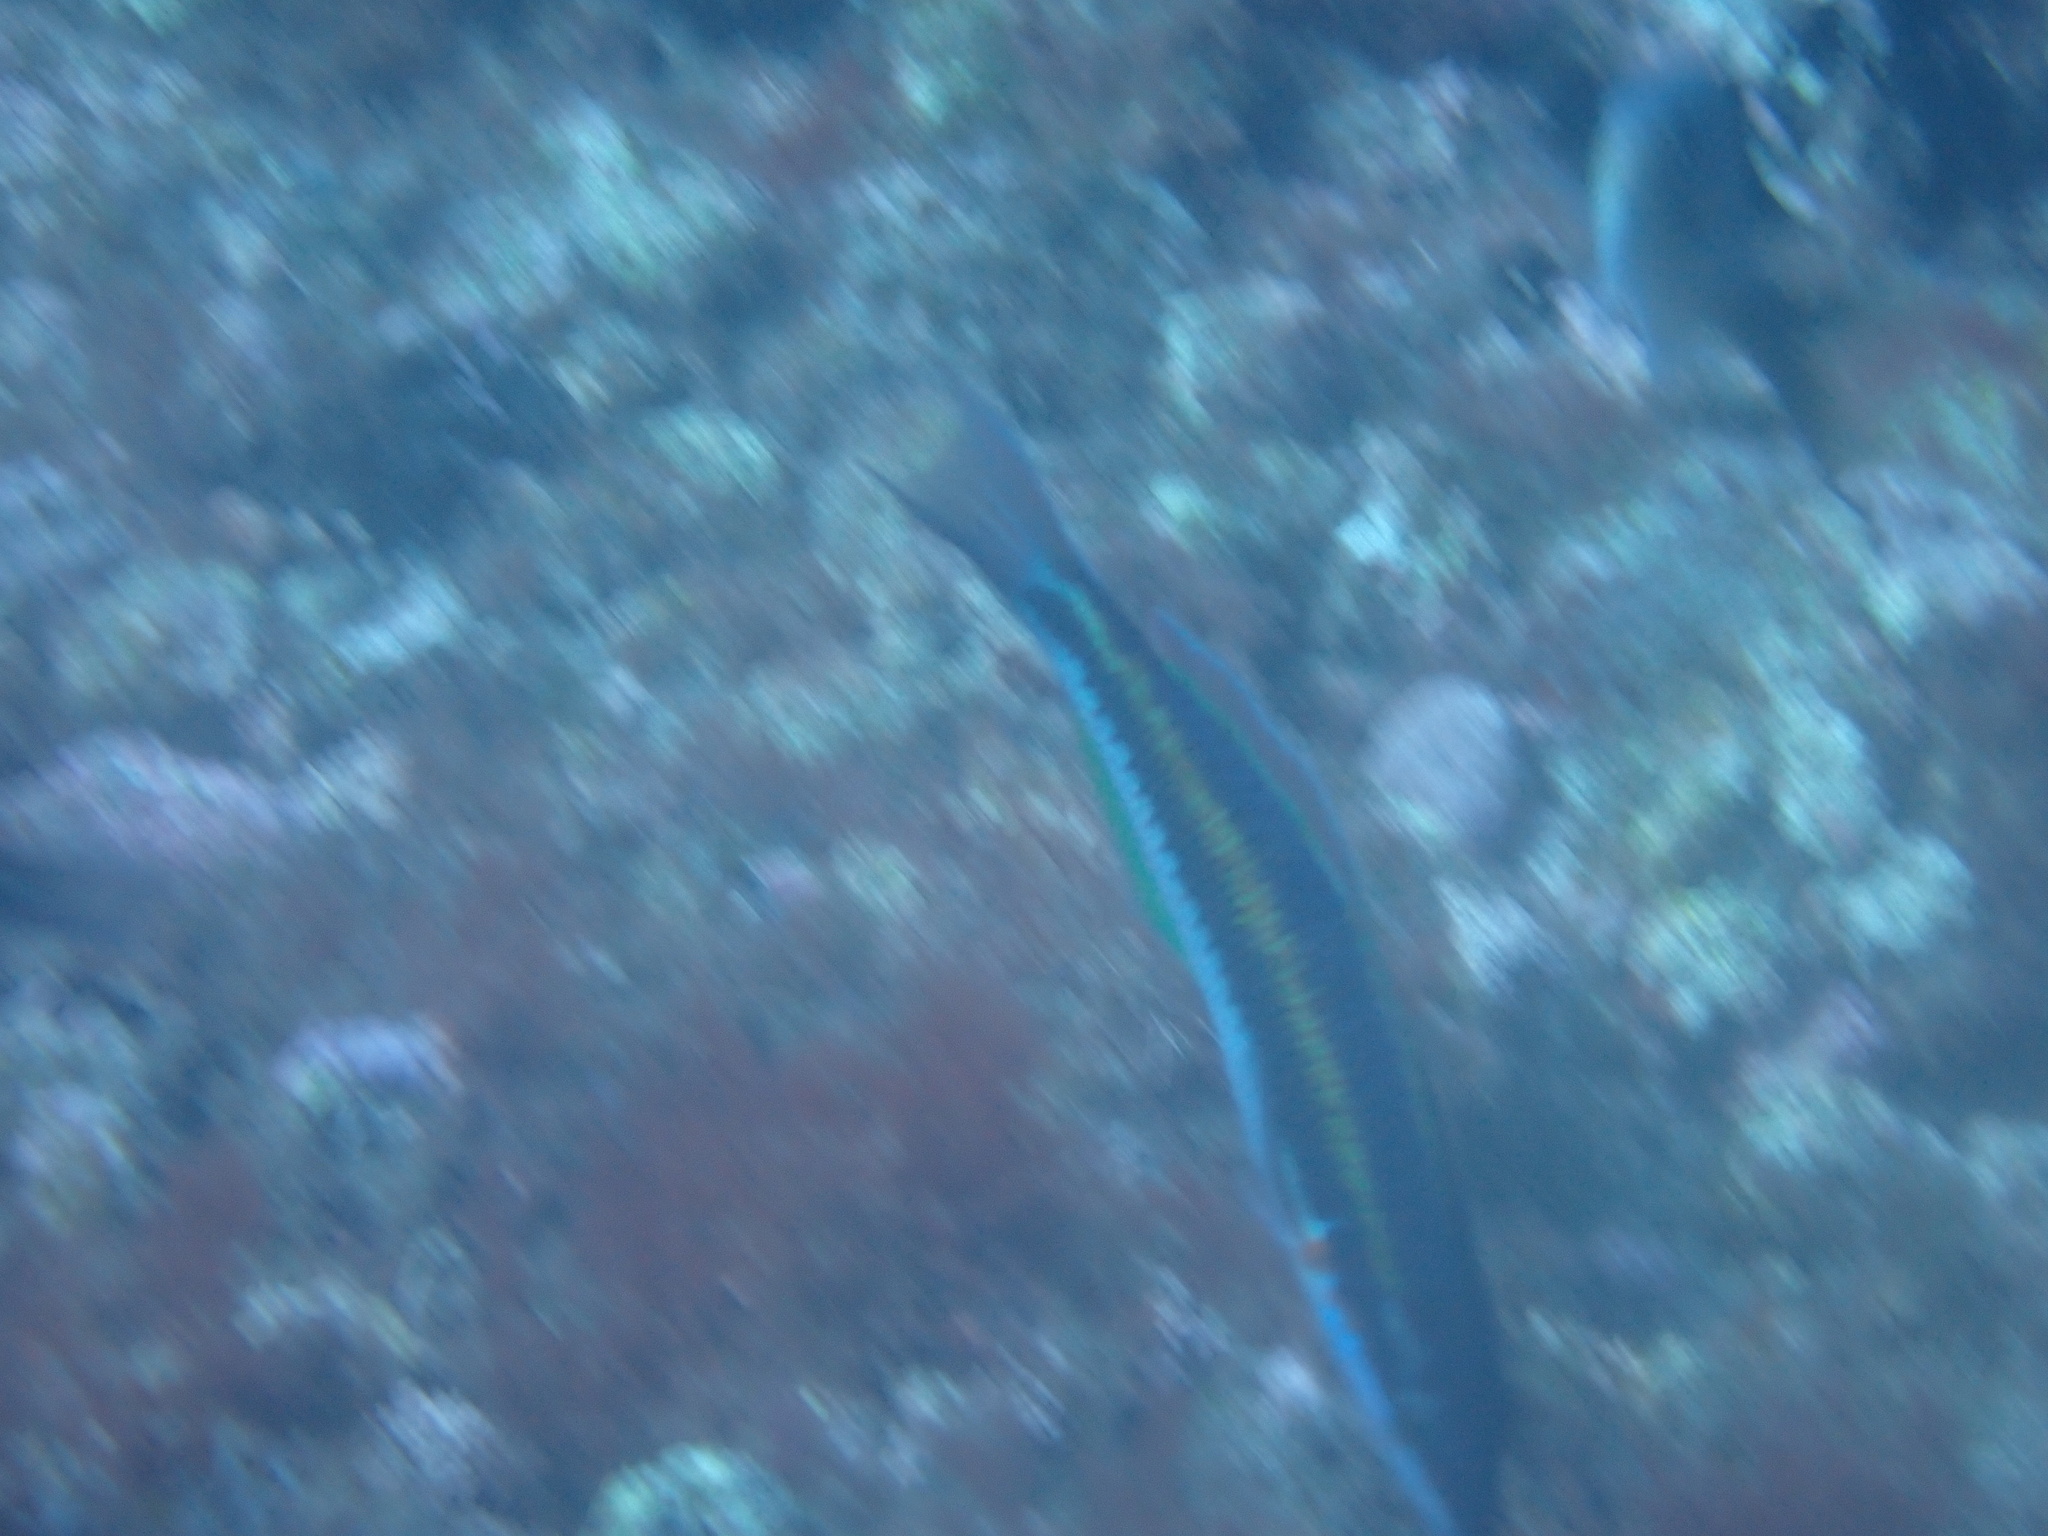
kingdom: Animalia
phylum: Chordata
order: Perciformes
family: Labridae
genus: Thalassoma
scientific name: Thalassoma pavo
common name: Ornate wrasse
